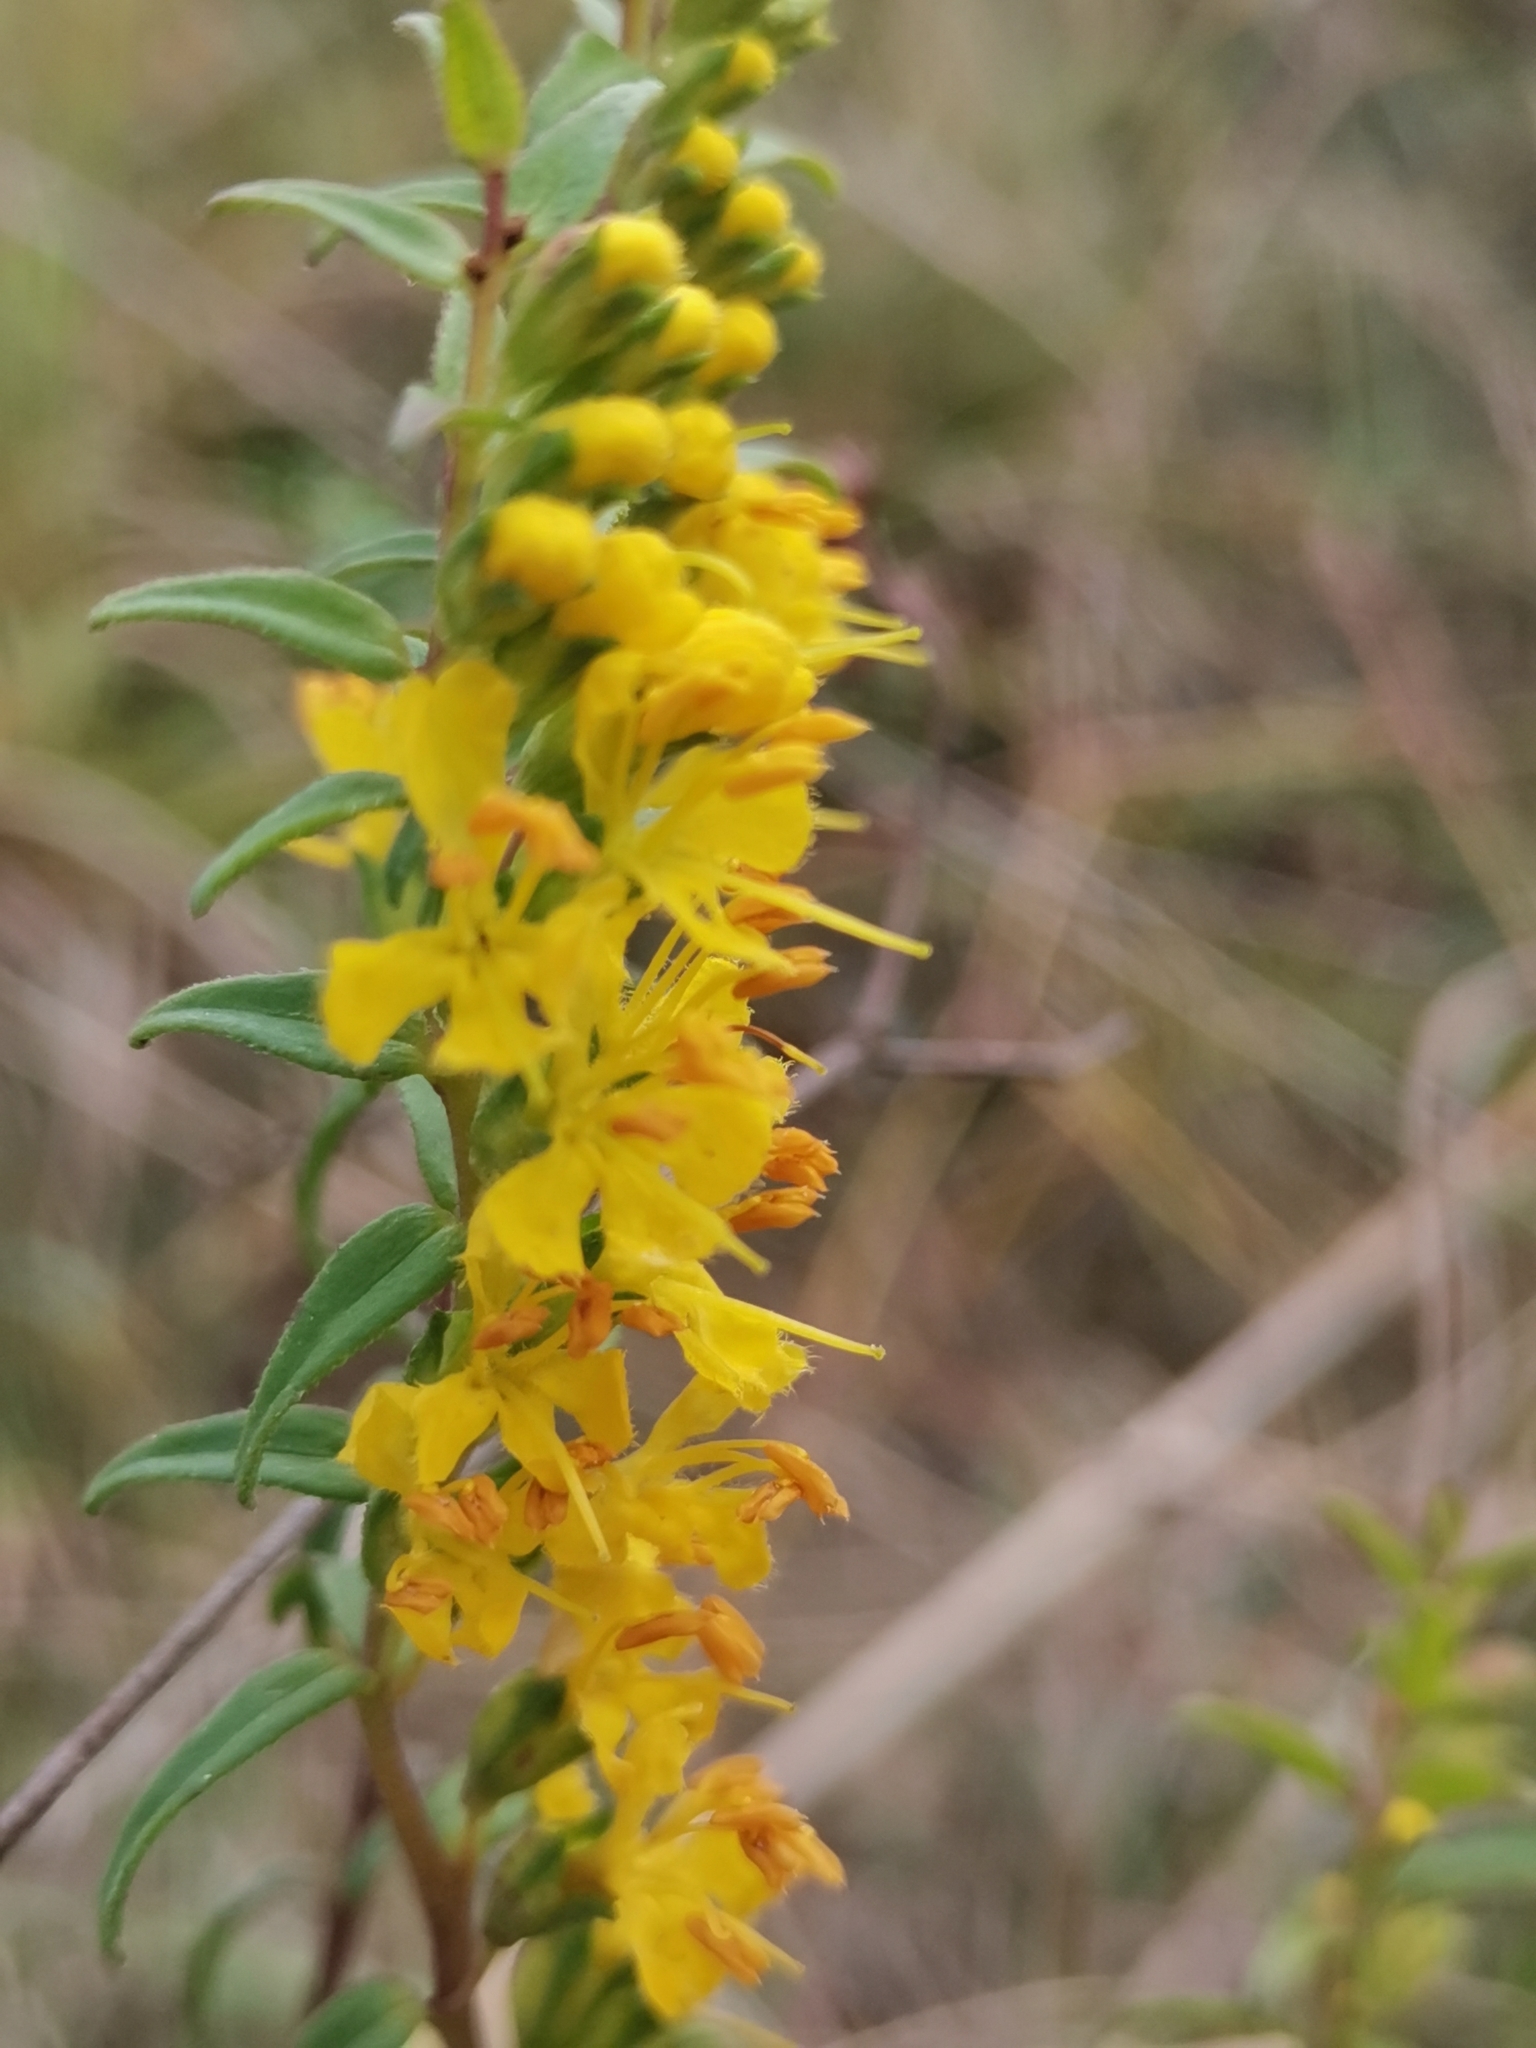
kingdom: Plantae
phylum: Tracheophyta
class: Magnoliopsida
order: Lamiales
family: Orobanchaceae
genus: Odontites
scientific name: Odontites luteus
